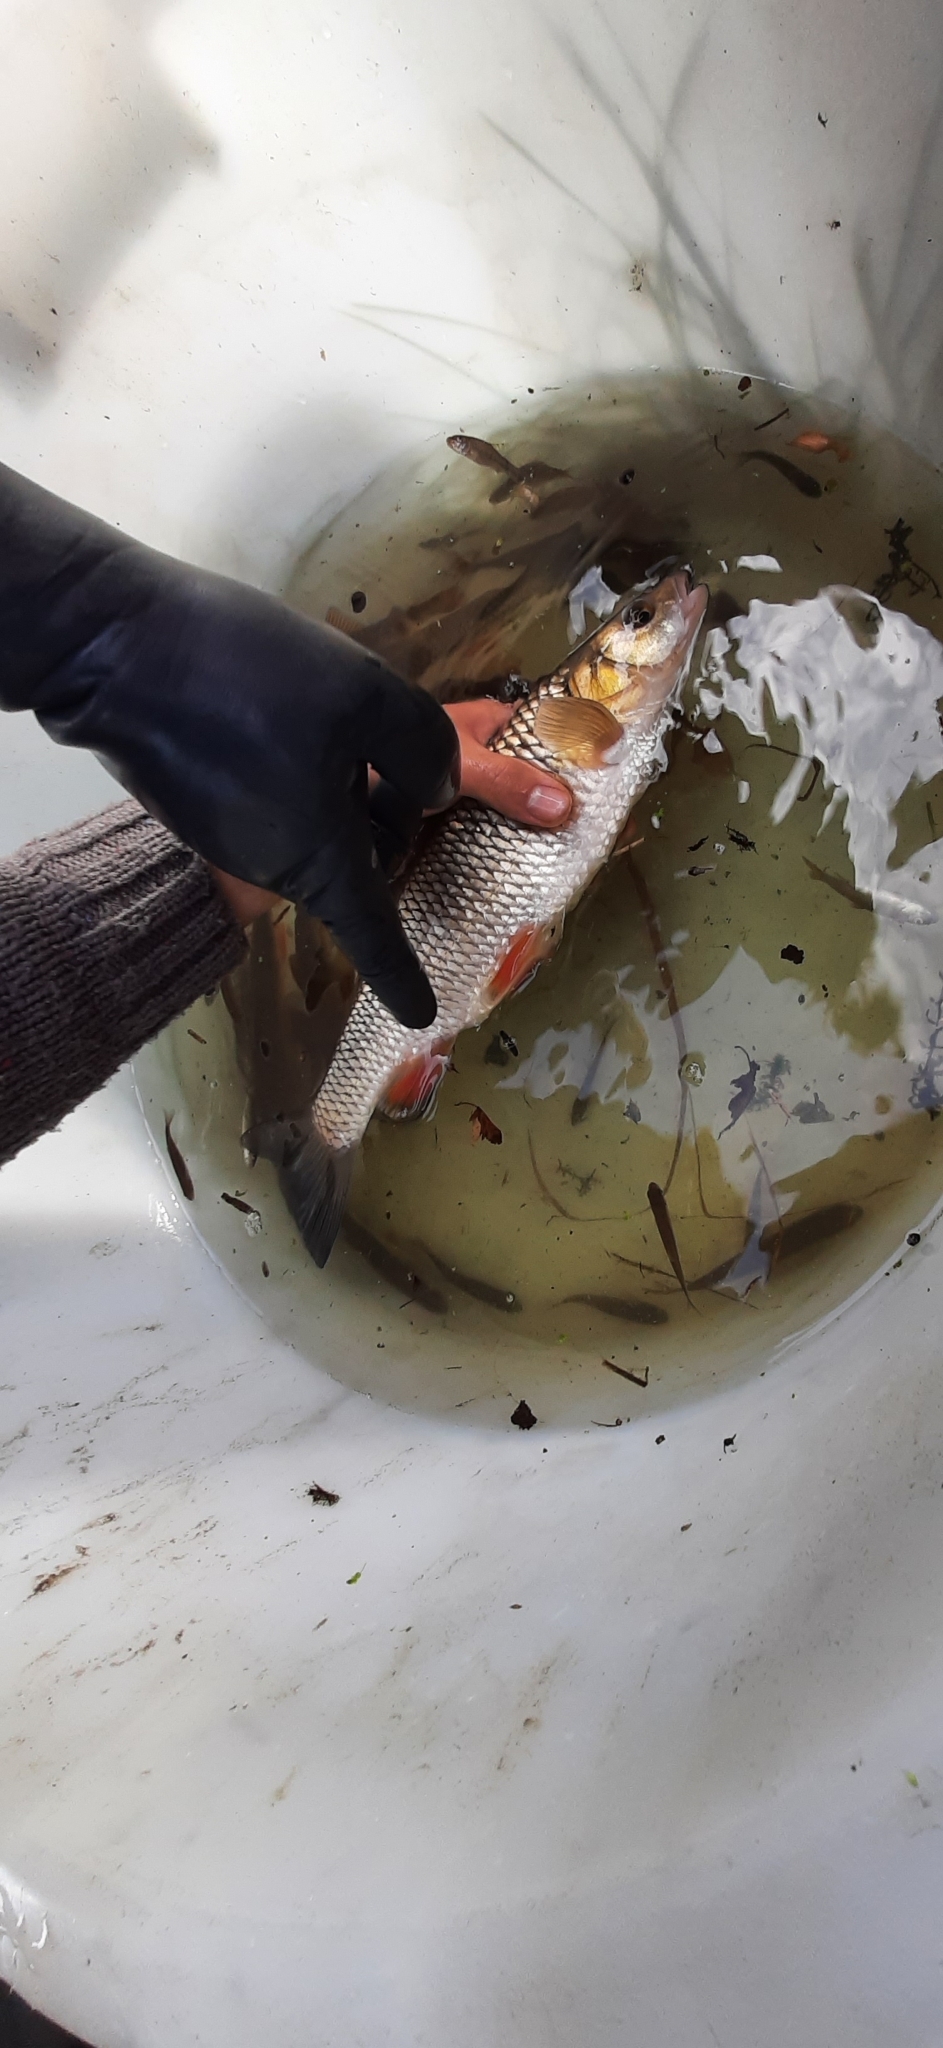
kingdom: Animalia
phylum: Chordata
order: Cypriniformes
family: Cyprinidae
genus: Squalius
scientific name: Squalius cephalus
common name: Chub
